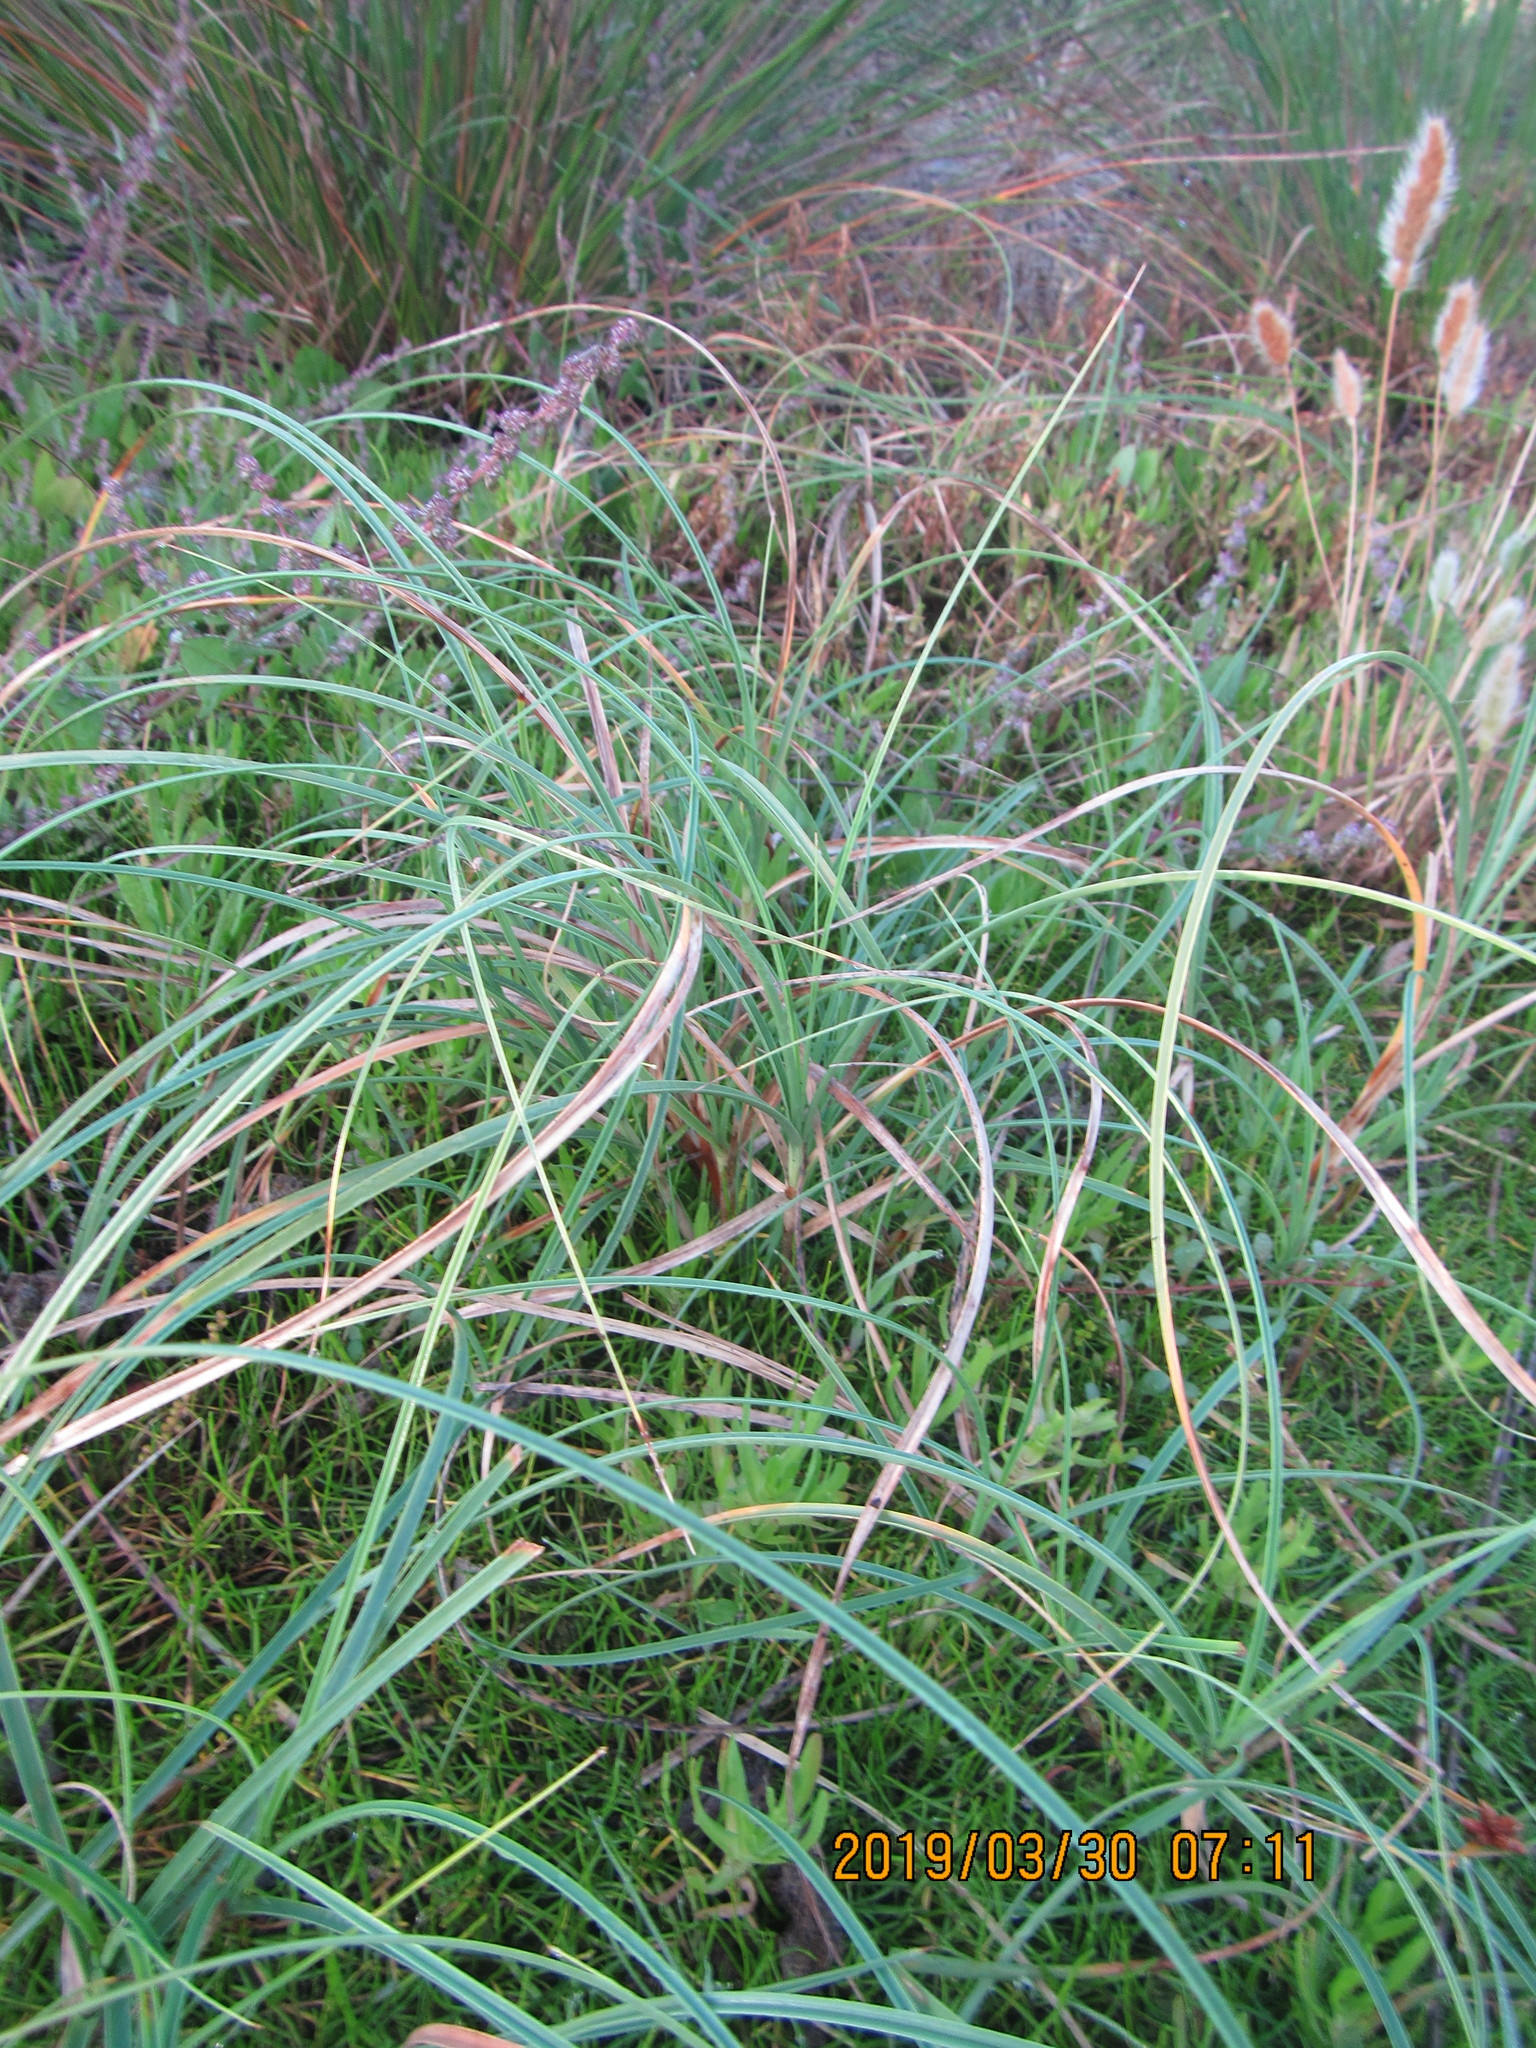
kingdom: Plantae
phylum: Tracheophyta
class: Liliopsida
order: Poales
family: Cyperaceae
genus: Carex
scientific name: Carex pumila
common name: Dwarf sedge
